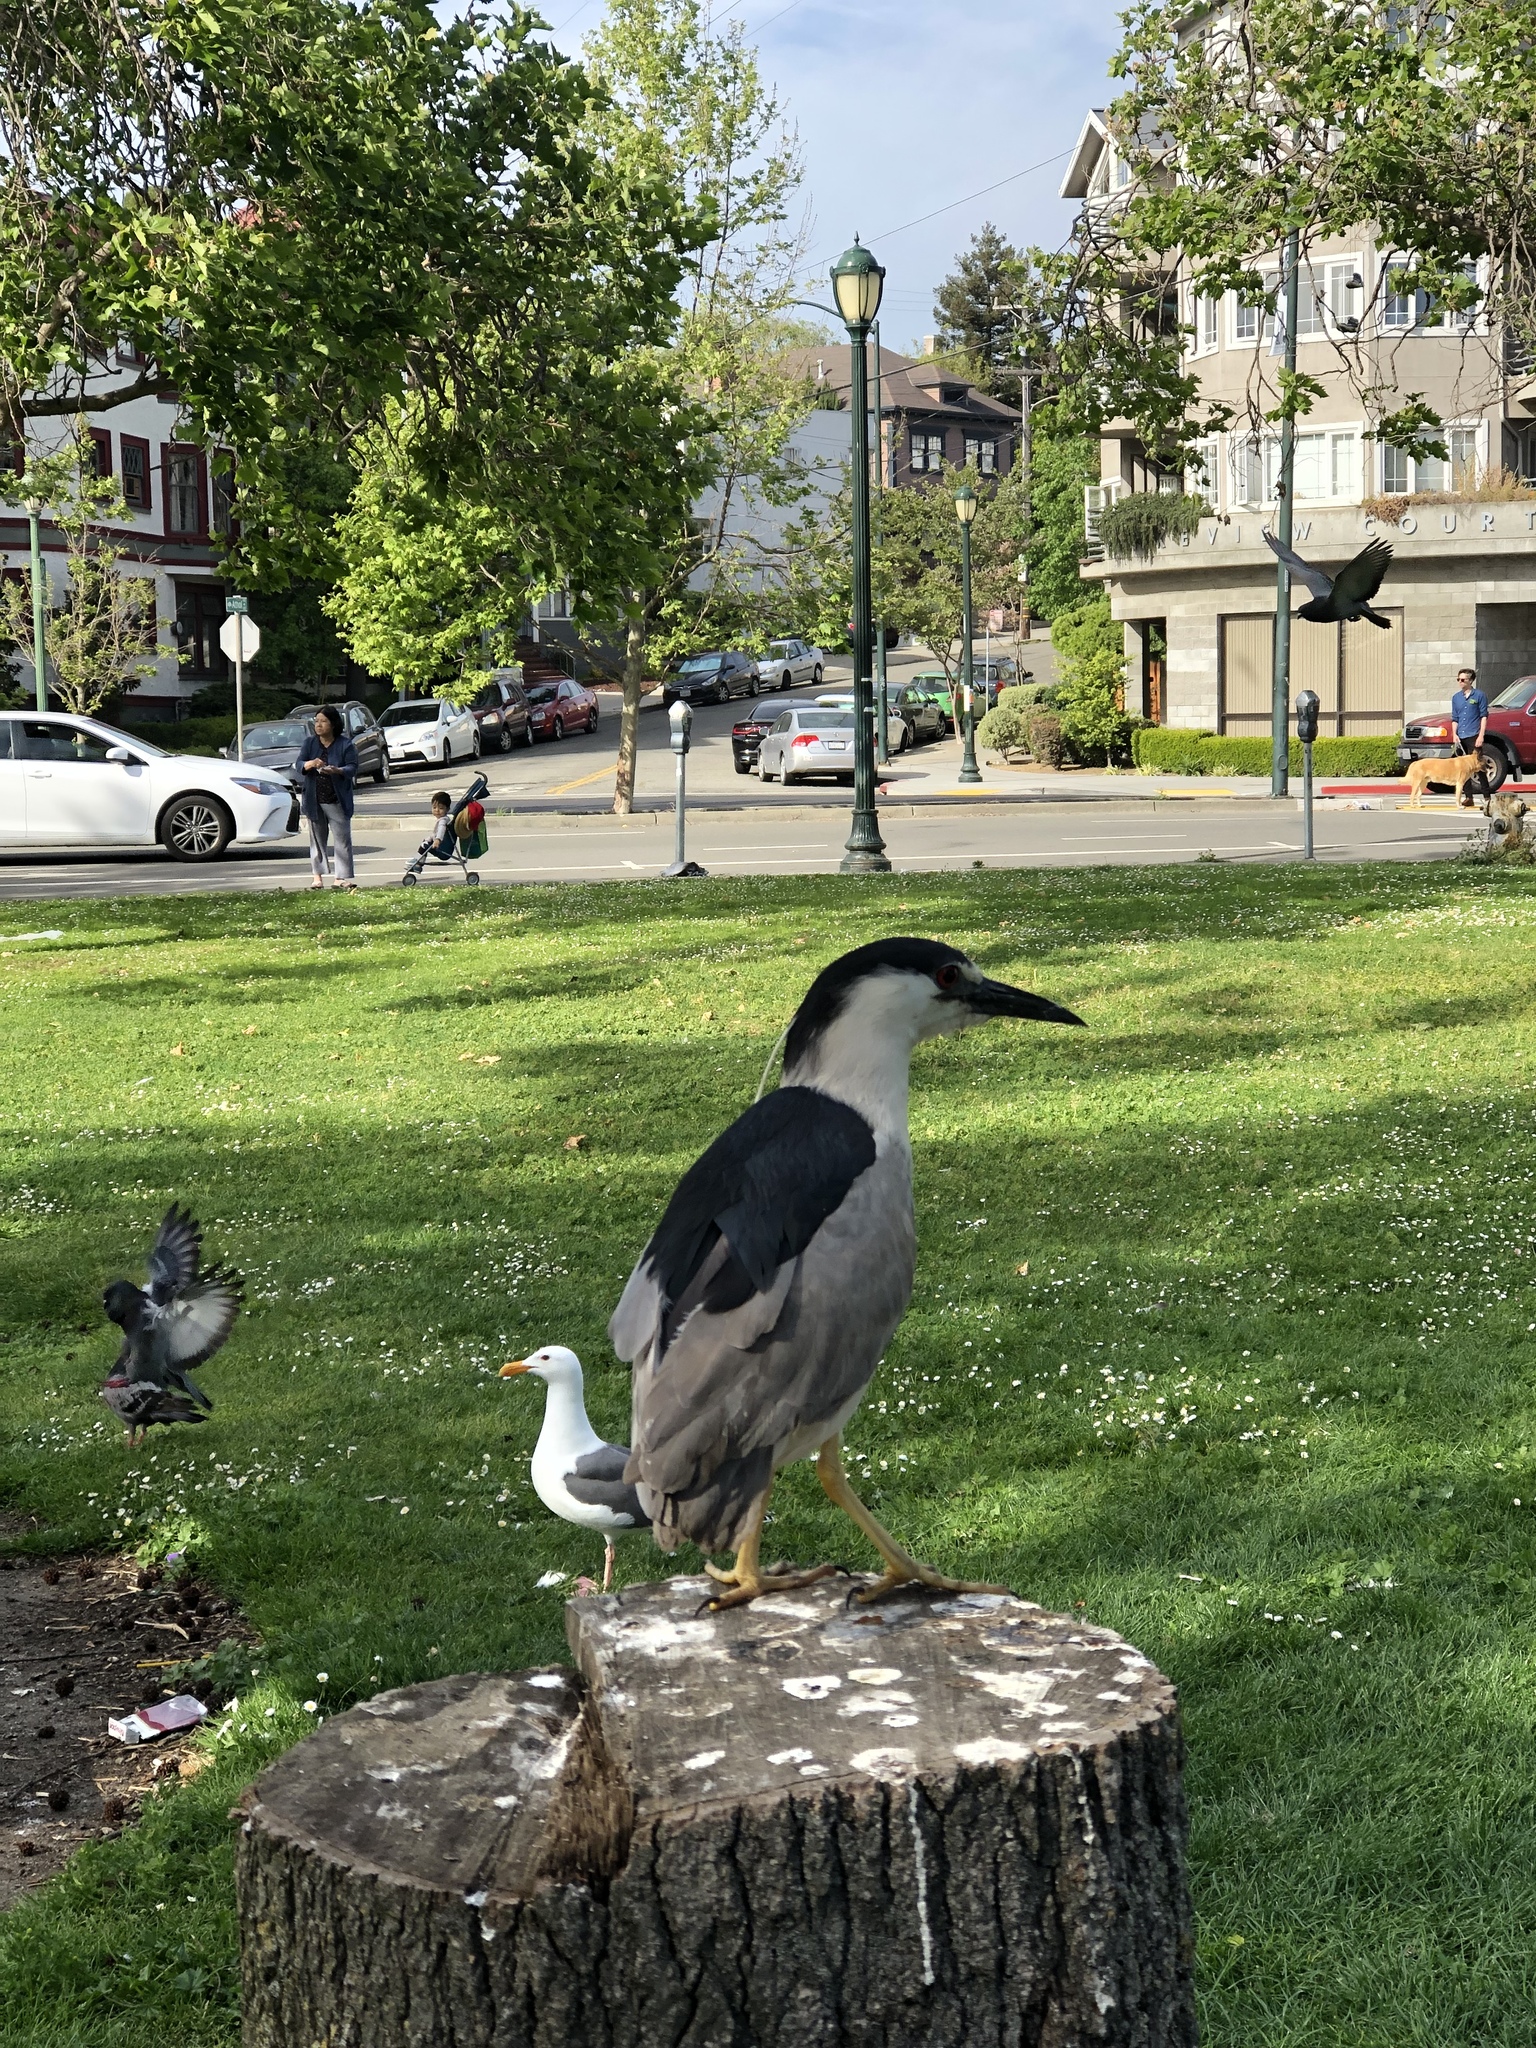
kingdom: Animalia
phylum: Chordata
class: Aves
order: Pelecaniformes
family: Ardeidae
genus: Nycticorax
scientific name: Nycticorax nycticorax
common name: Black-crowned night heron
